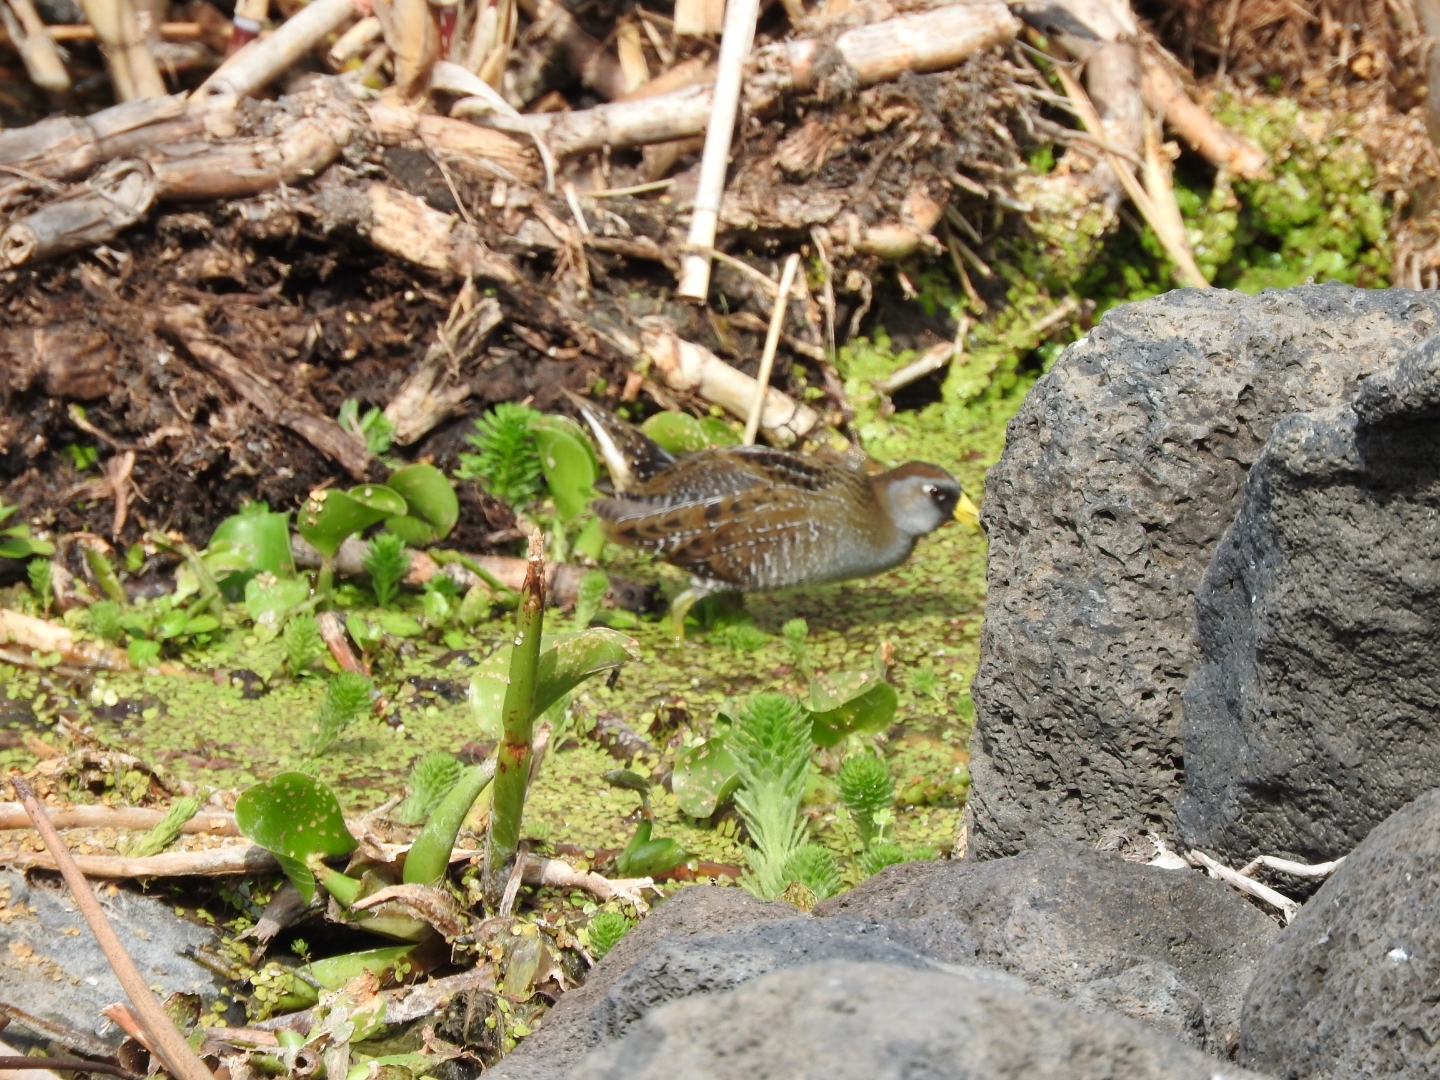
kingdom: Animalia
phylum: Chordata
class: Aves
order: Gruiformes
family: Rallidae
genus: Porzana
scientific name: Porzana carolina
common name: Sora
